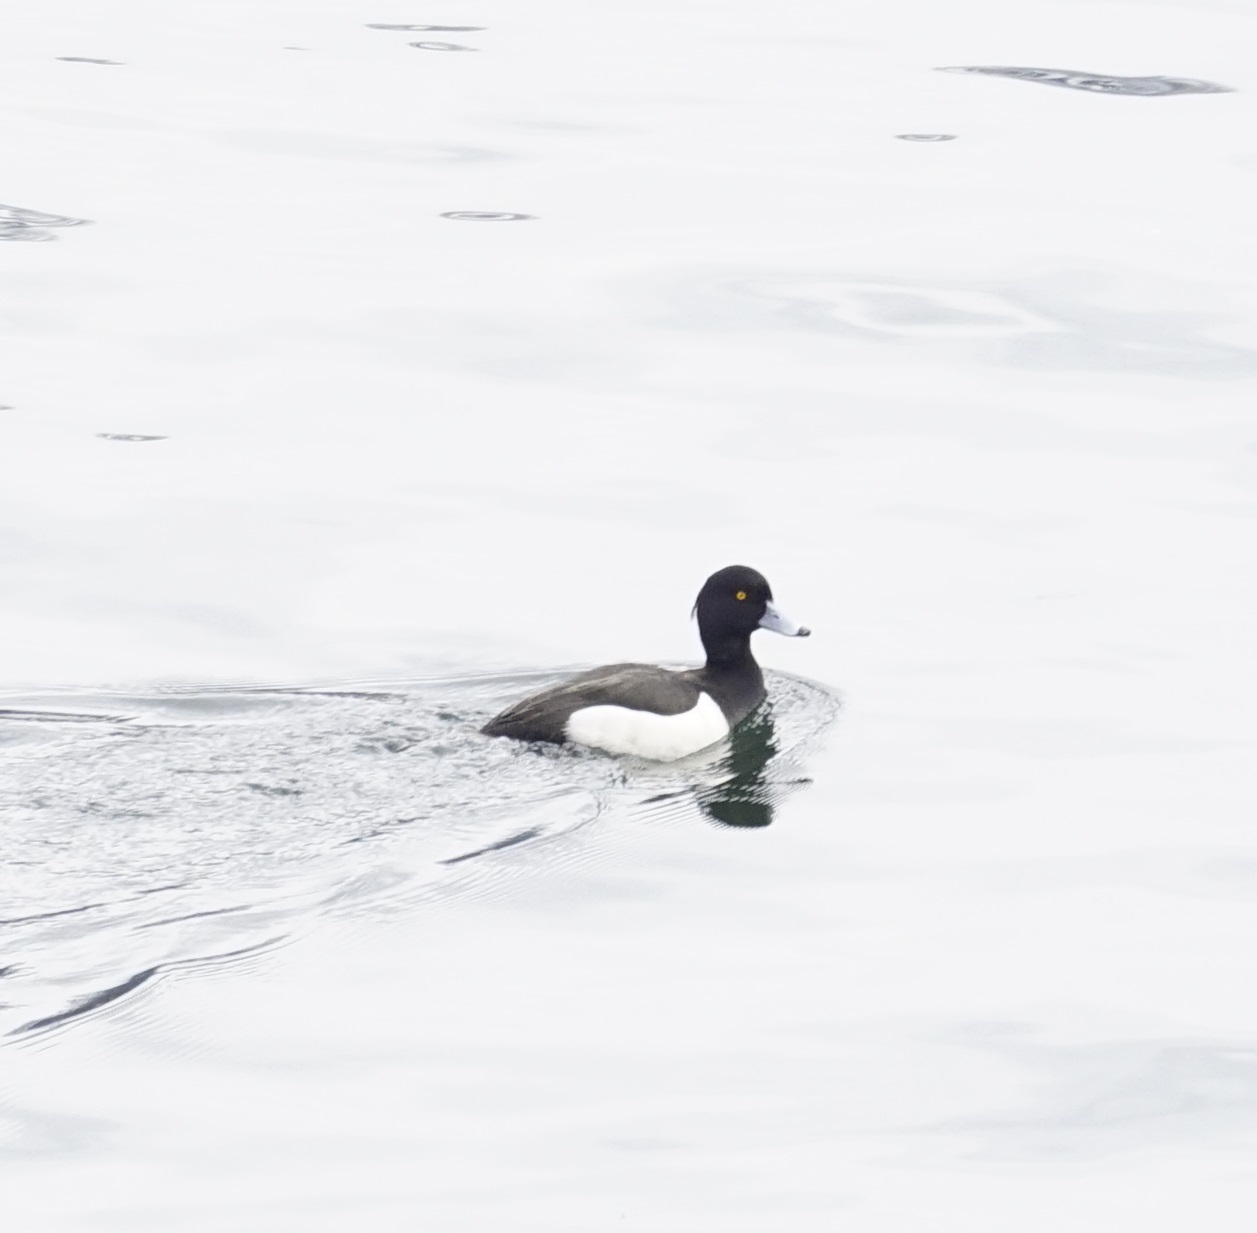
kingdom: Animalia
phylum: Chordata
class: Aves
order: Anseriformes
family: Anatidae
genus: Aythya
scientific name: Aythya fuligula
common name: Tufted duck
